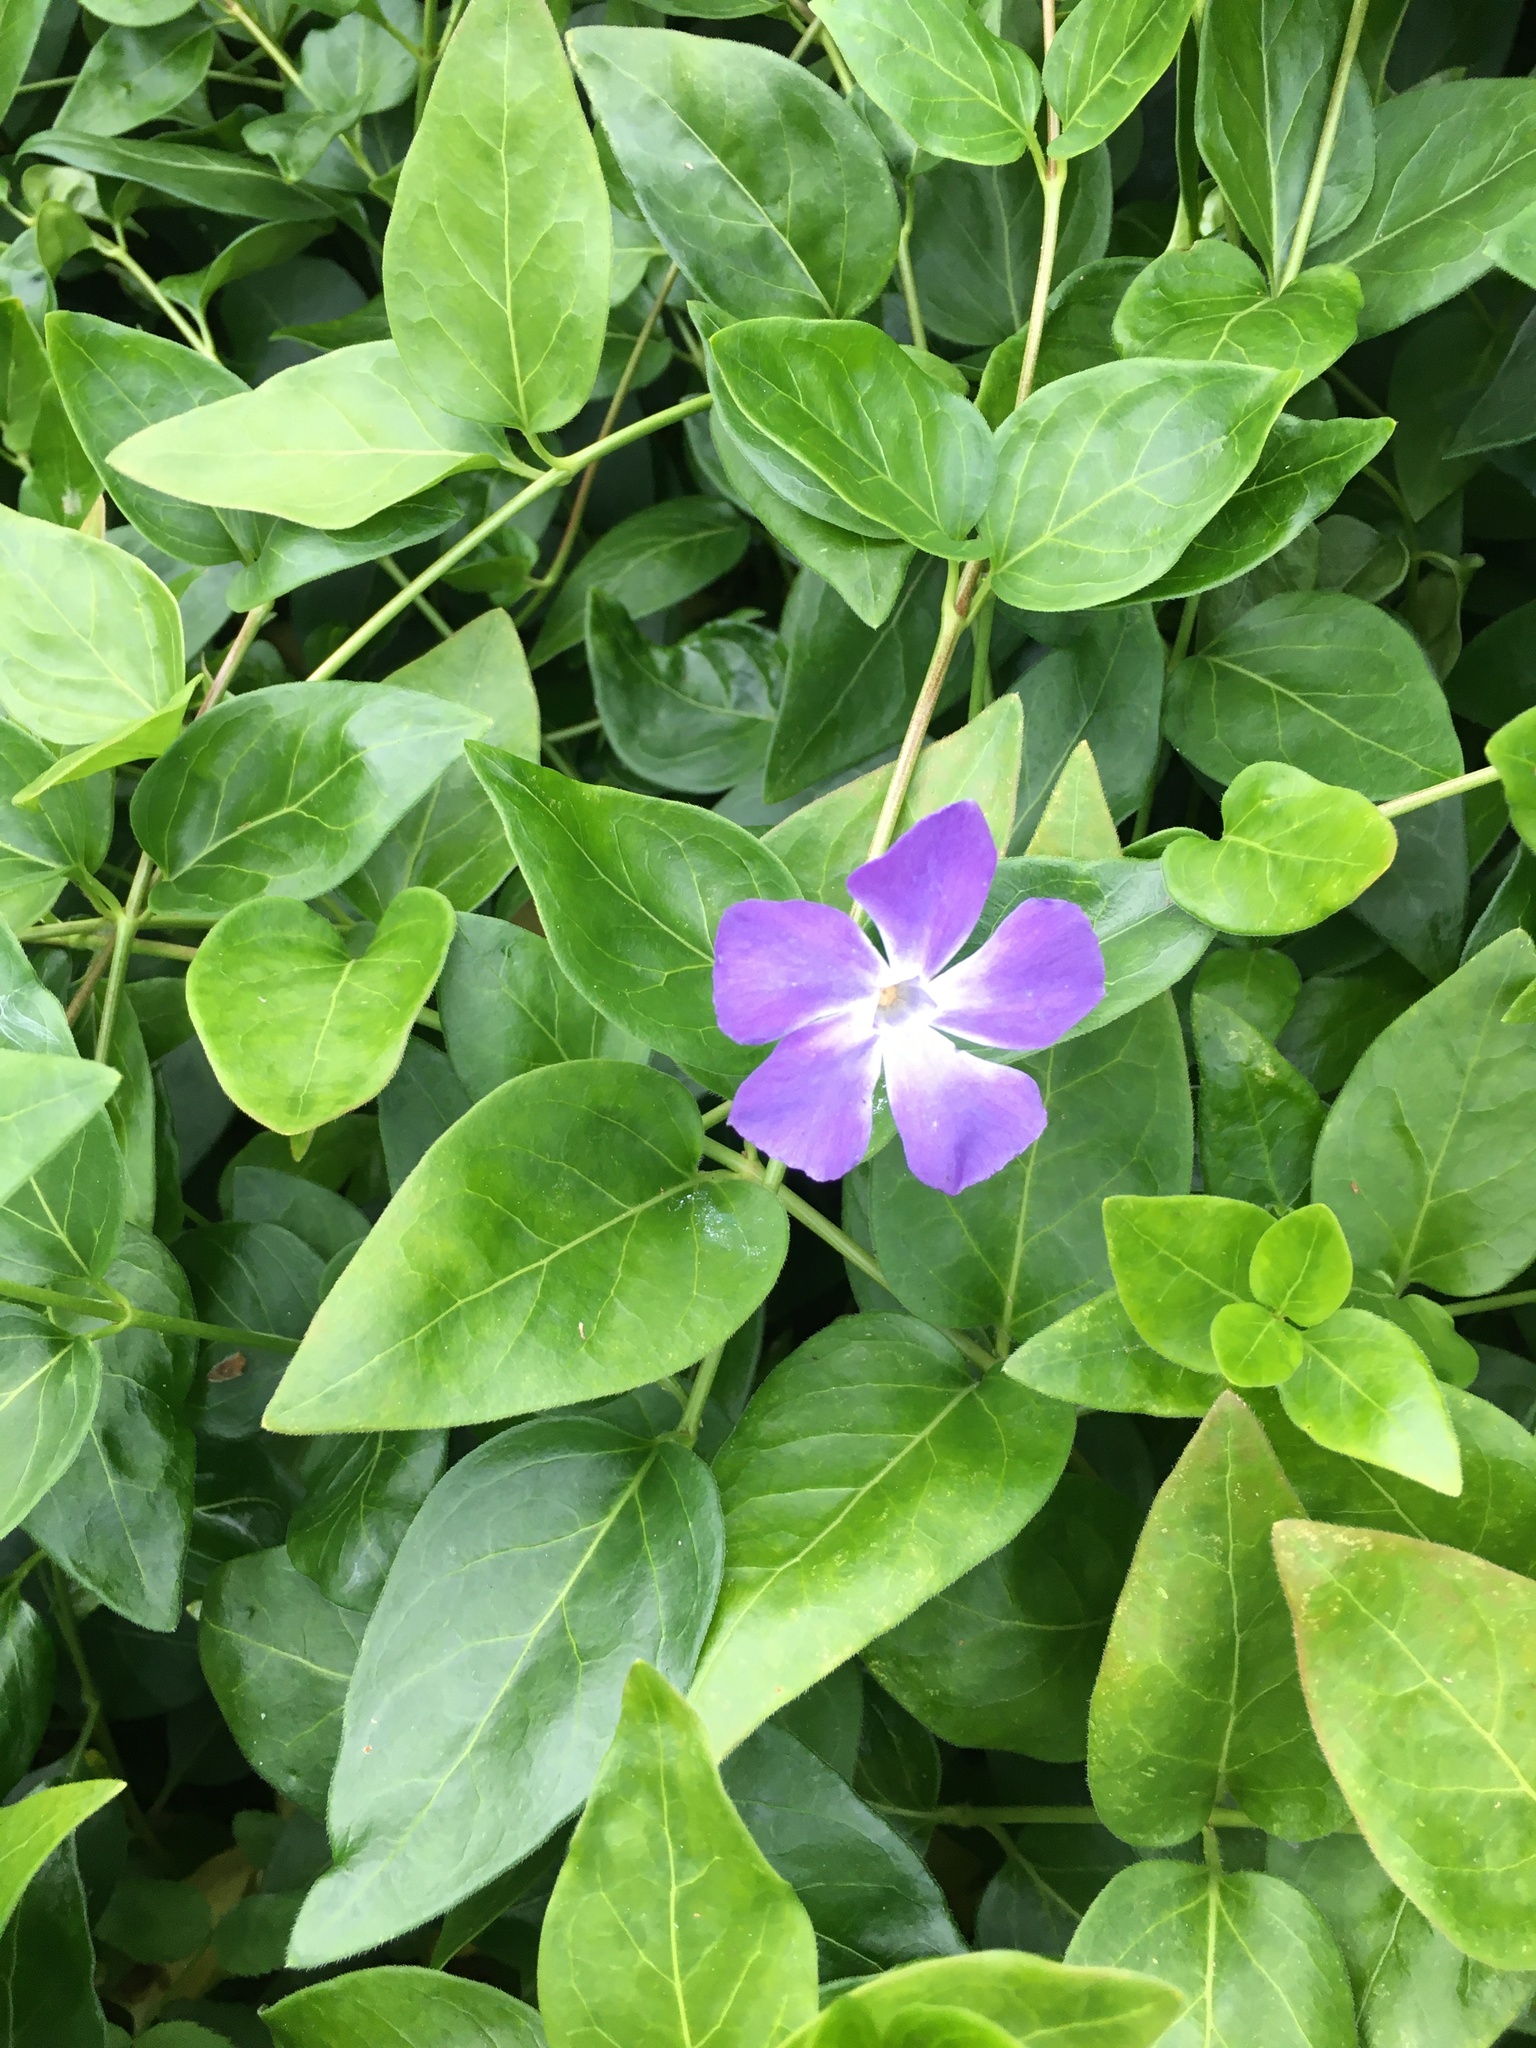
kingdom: Plantae
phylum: Tracheophyta
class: Magnoliopsida
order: Gentianales
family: Apocynaceae
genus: Vinca
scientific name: Vinca major
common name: Greater periwinkle
